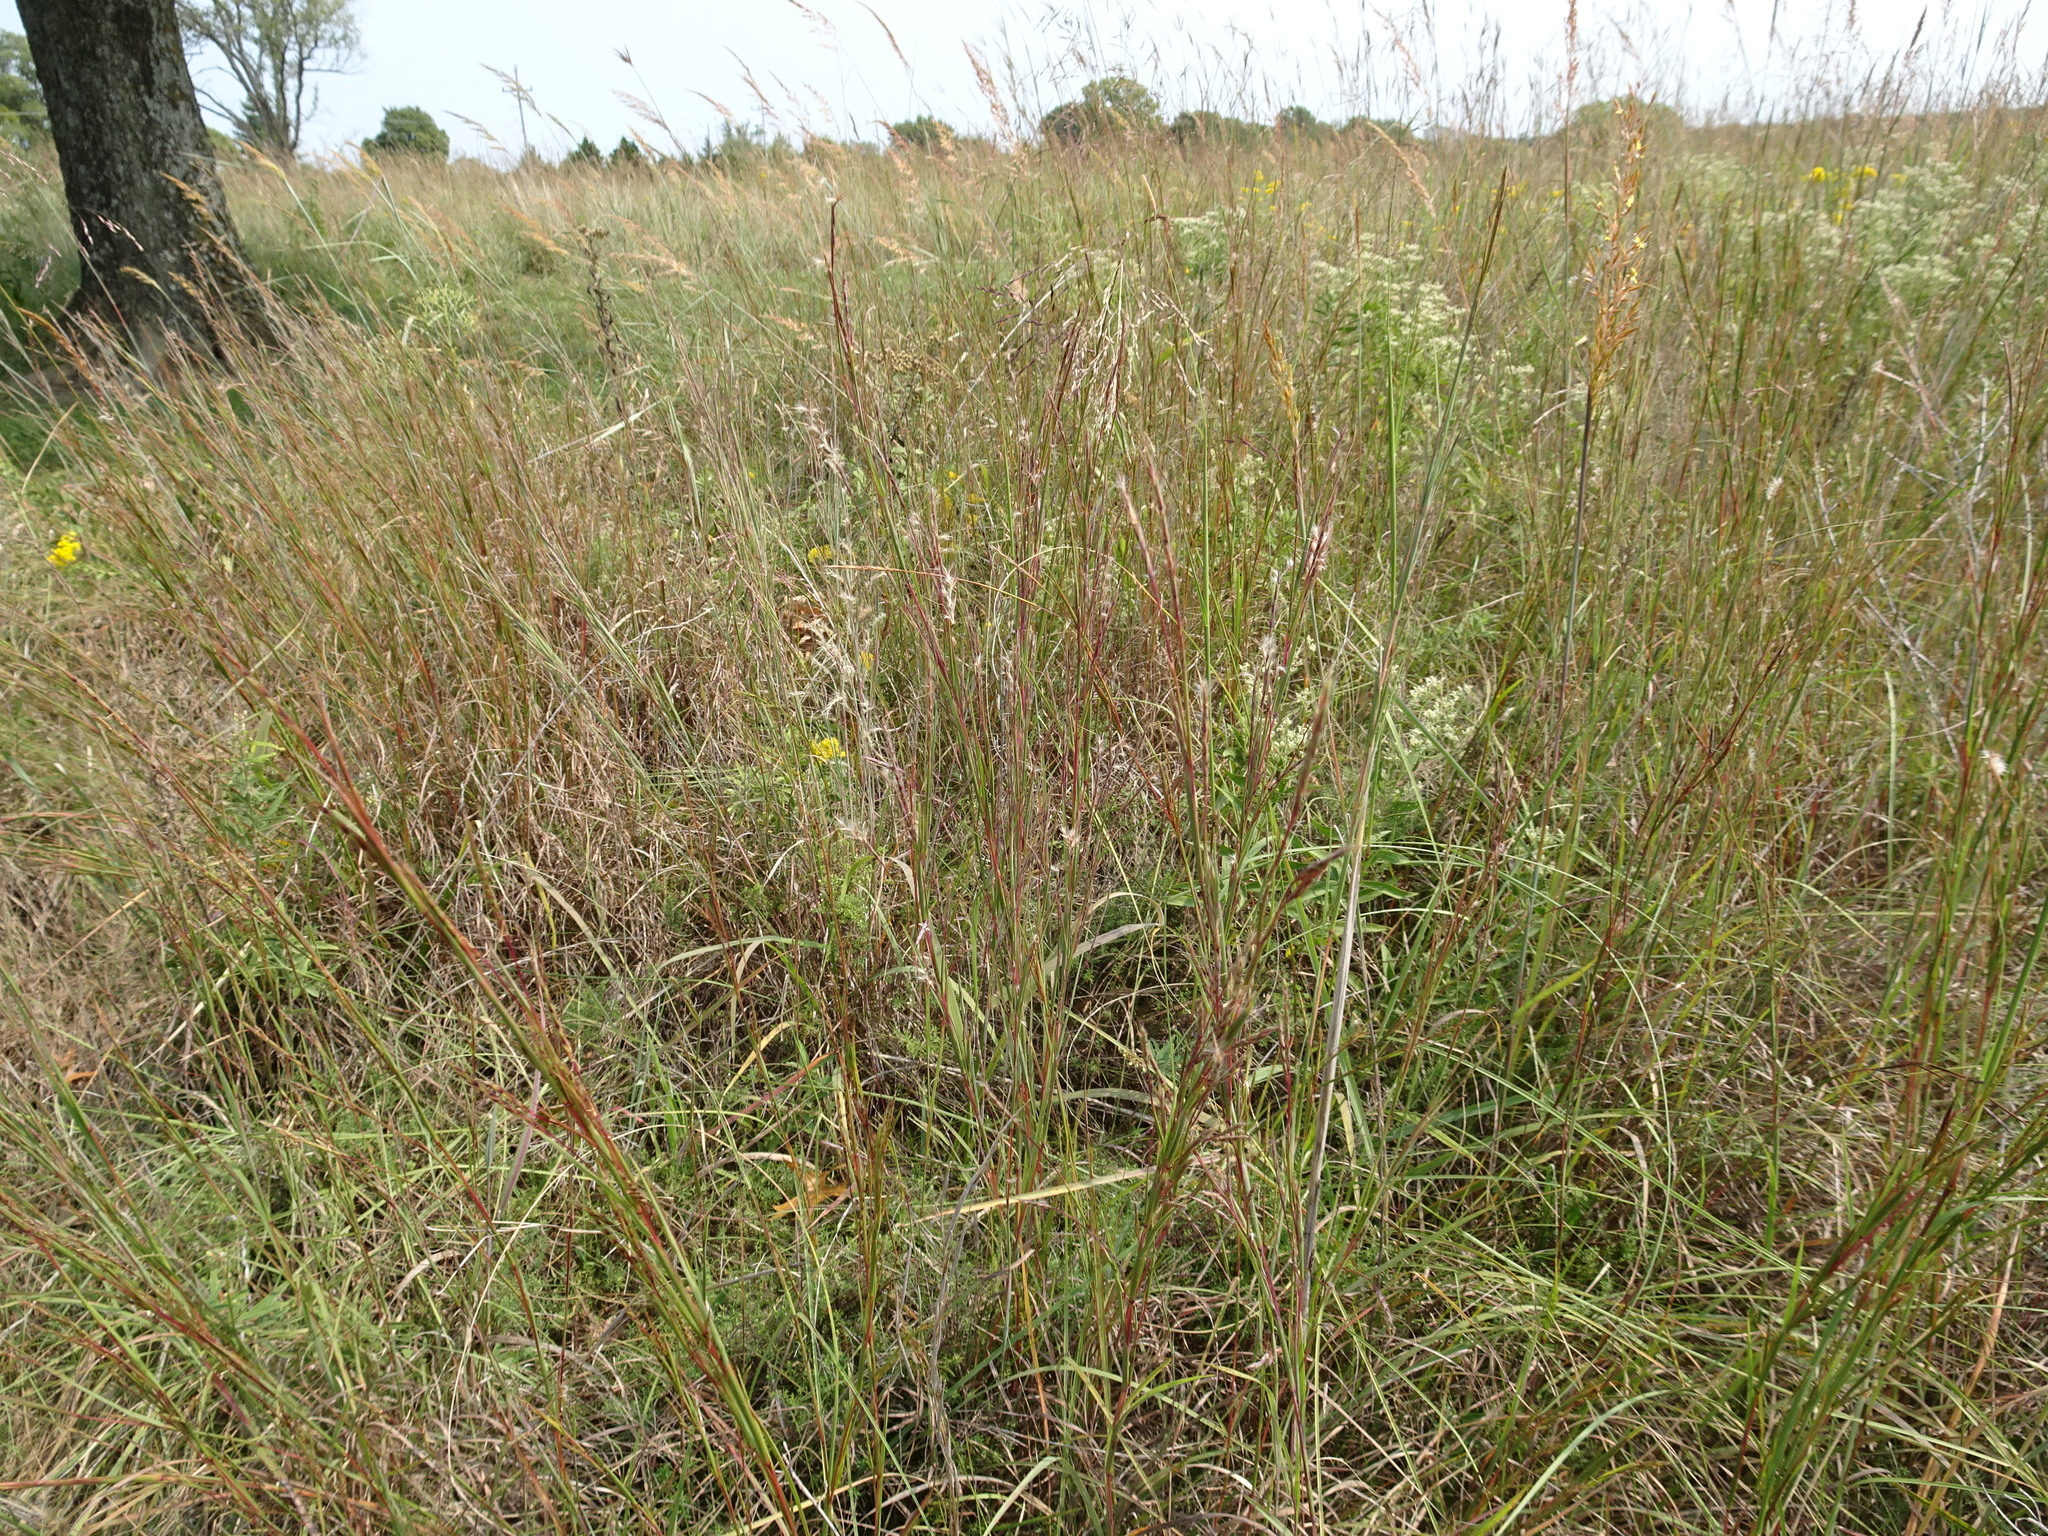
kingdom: Plantae
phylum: Tracheophyta
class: Liliopsida
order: Poales
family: Poaceae
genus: Schizachyrium
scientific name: Schizachyrium scoparium
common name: Little bluestem
